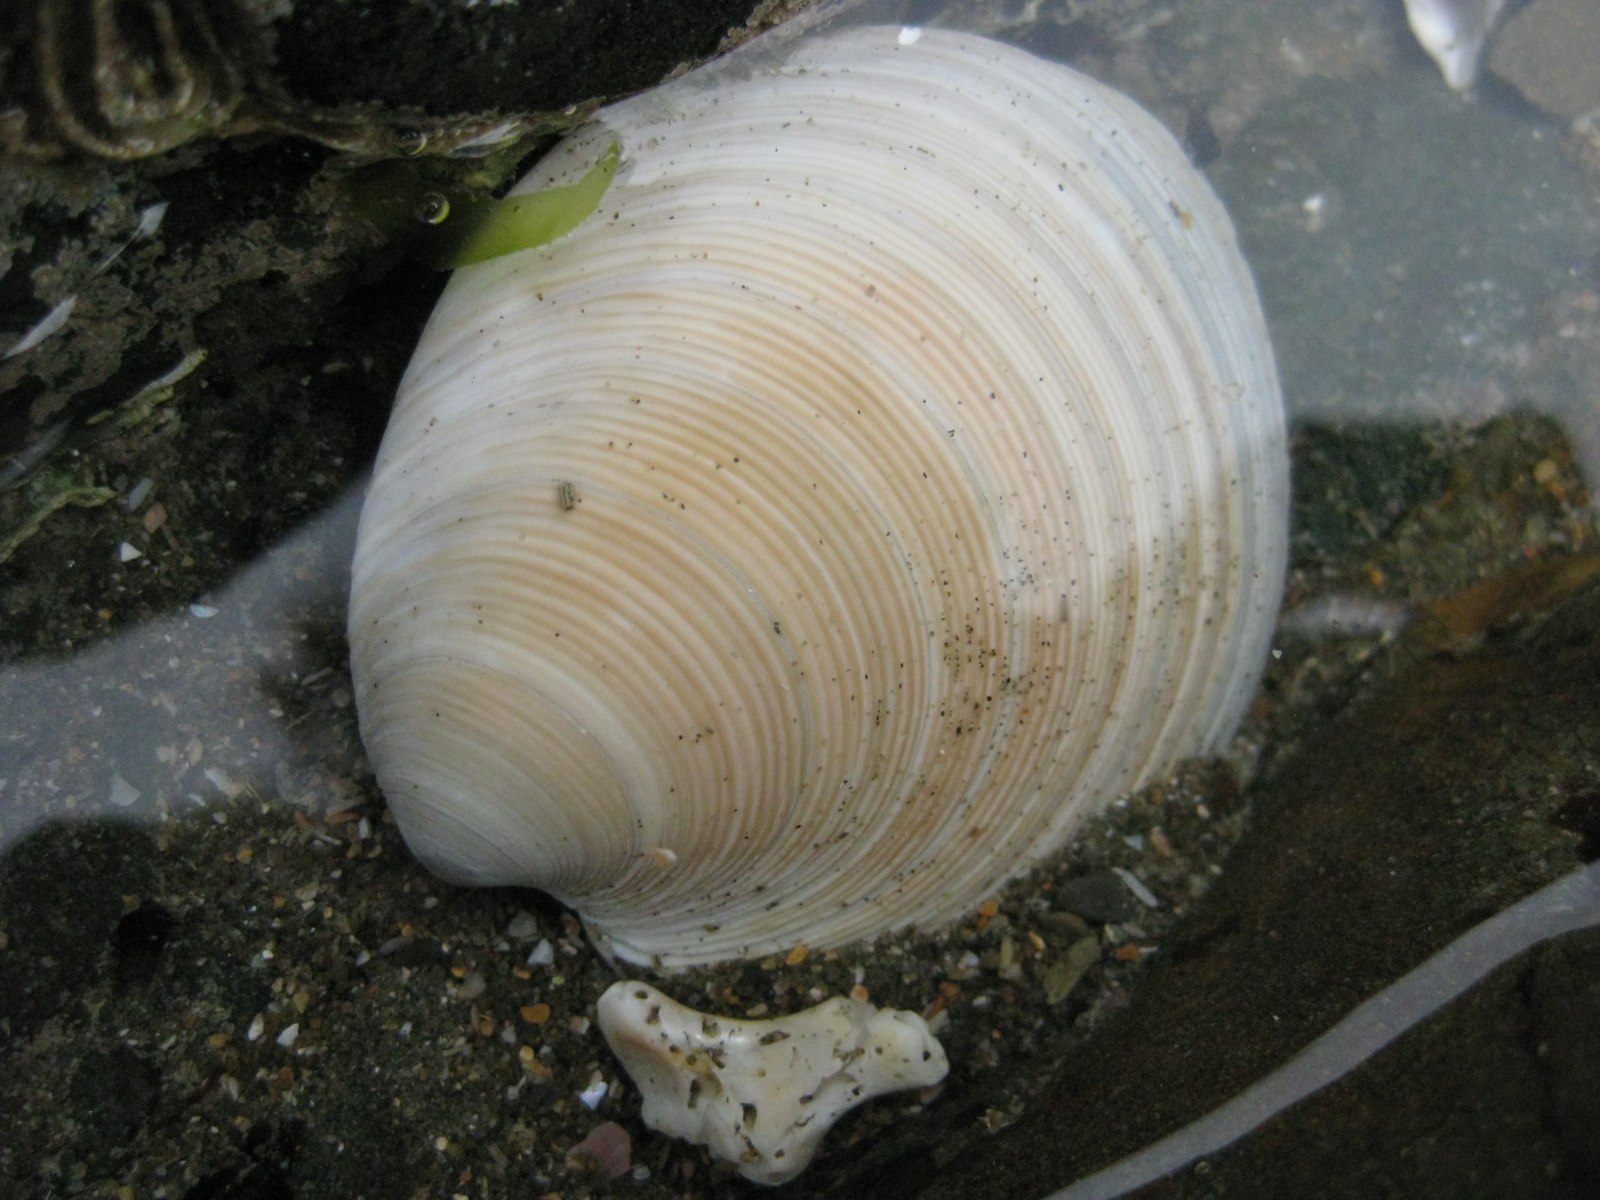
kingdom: Animalia
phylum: Mollusca
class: Bivalvia
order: Venerida
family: Veneridae
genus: Dosinia
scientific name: Dosinia anus
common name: Old-woman dosinia
